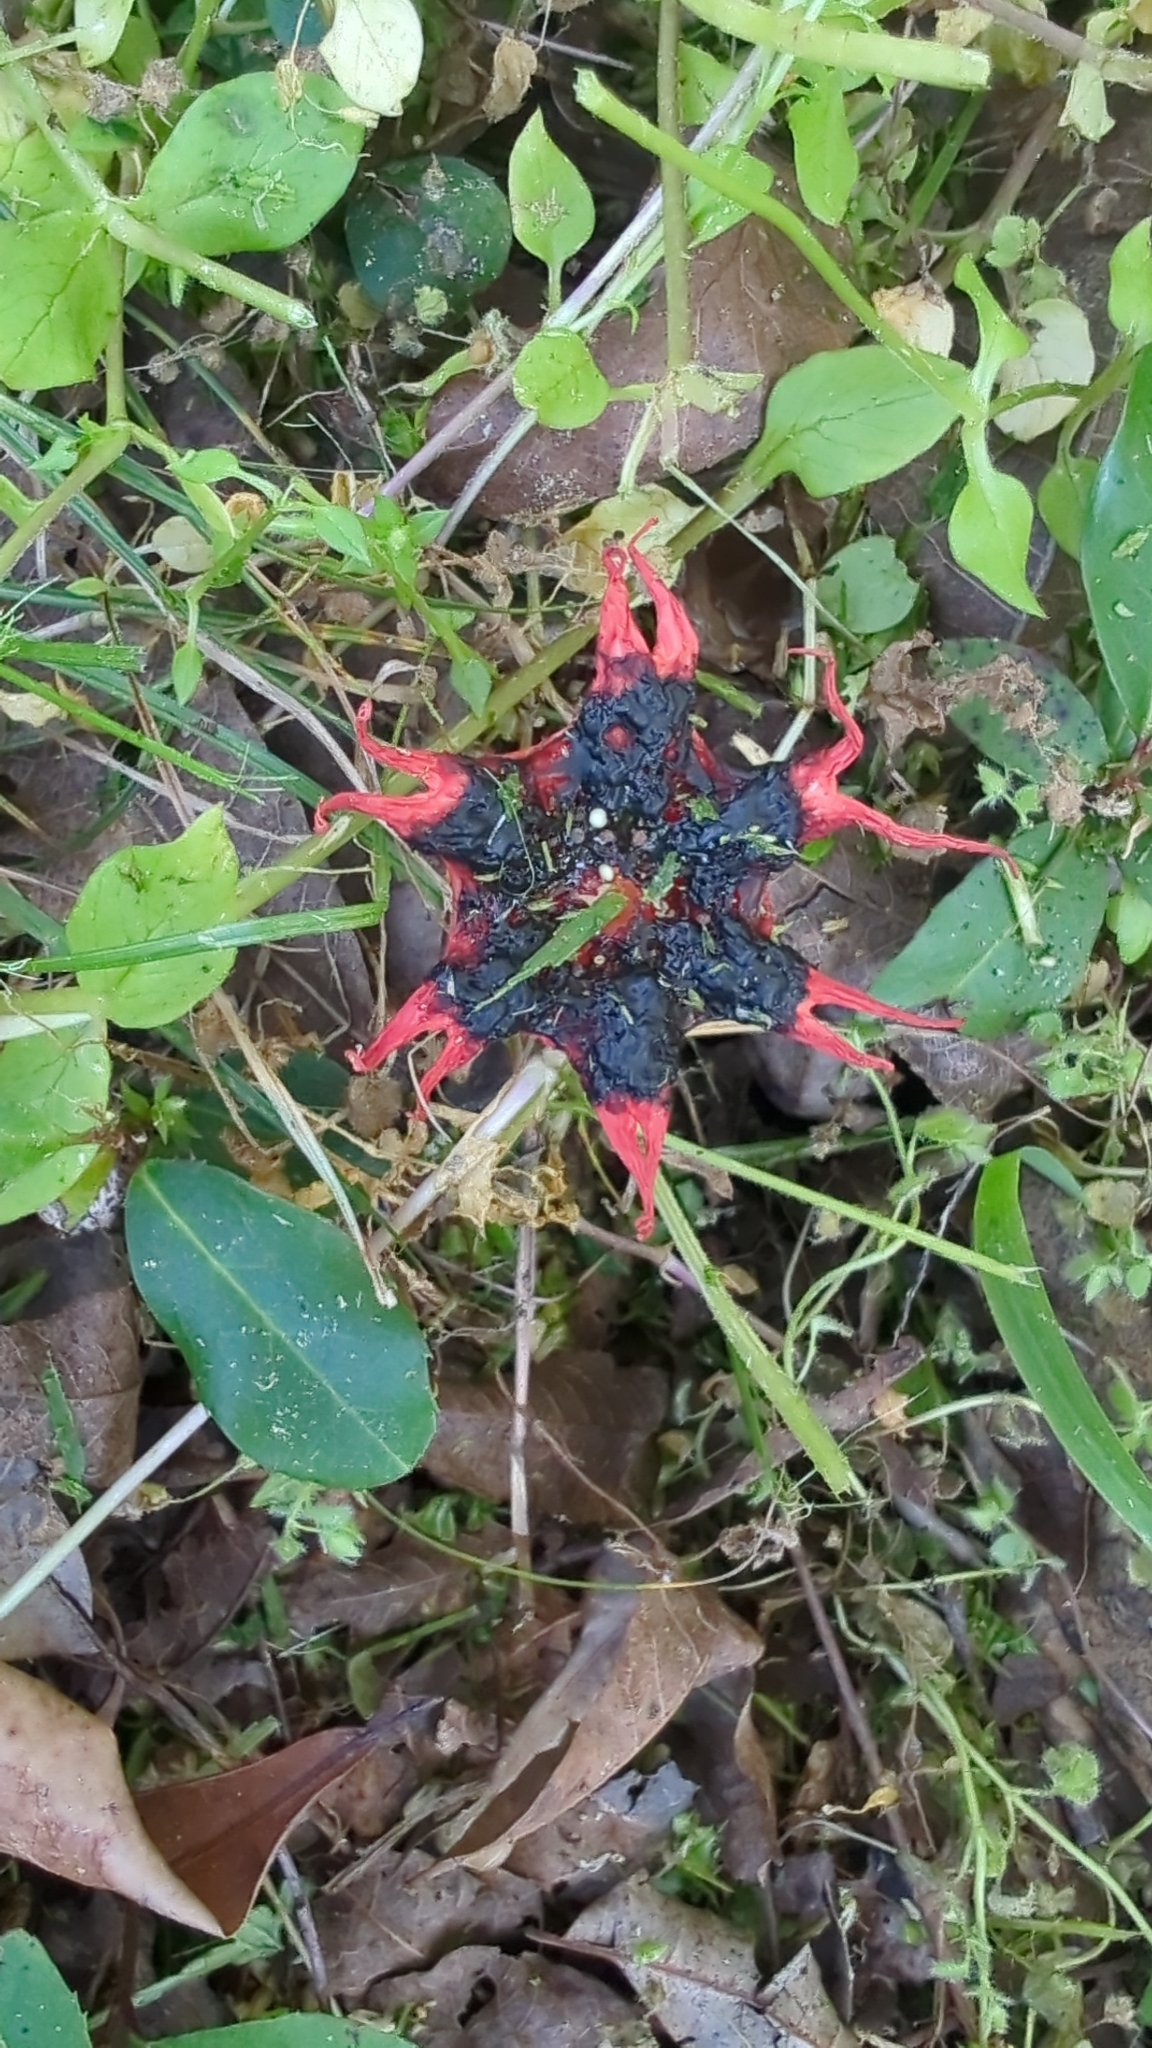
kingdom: Fungi
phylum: Basidiomycota
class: Agaricomycetes
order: Phallales
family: Phallaceae
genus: Aseroe
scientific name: Aseroe rubra
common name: Starfish fungus
